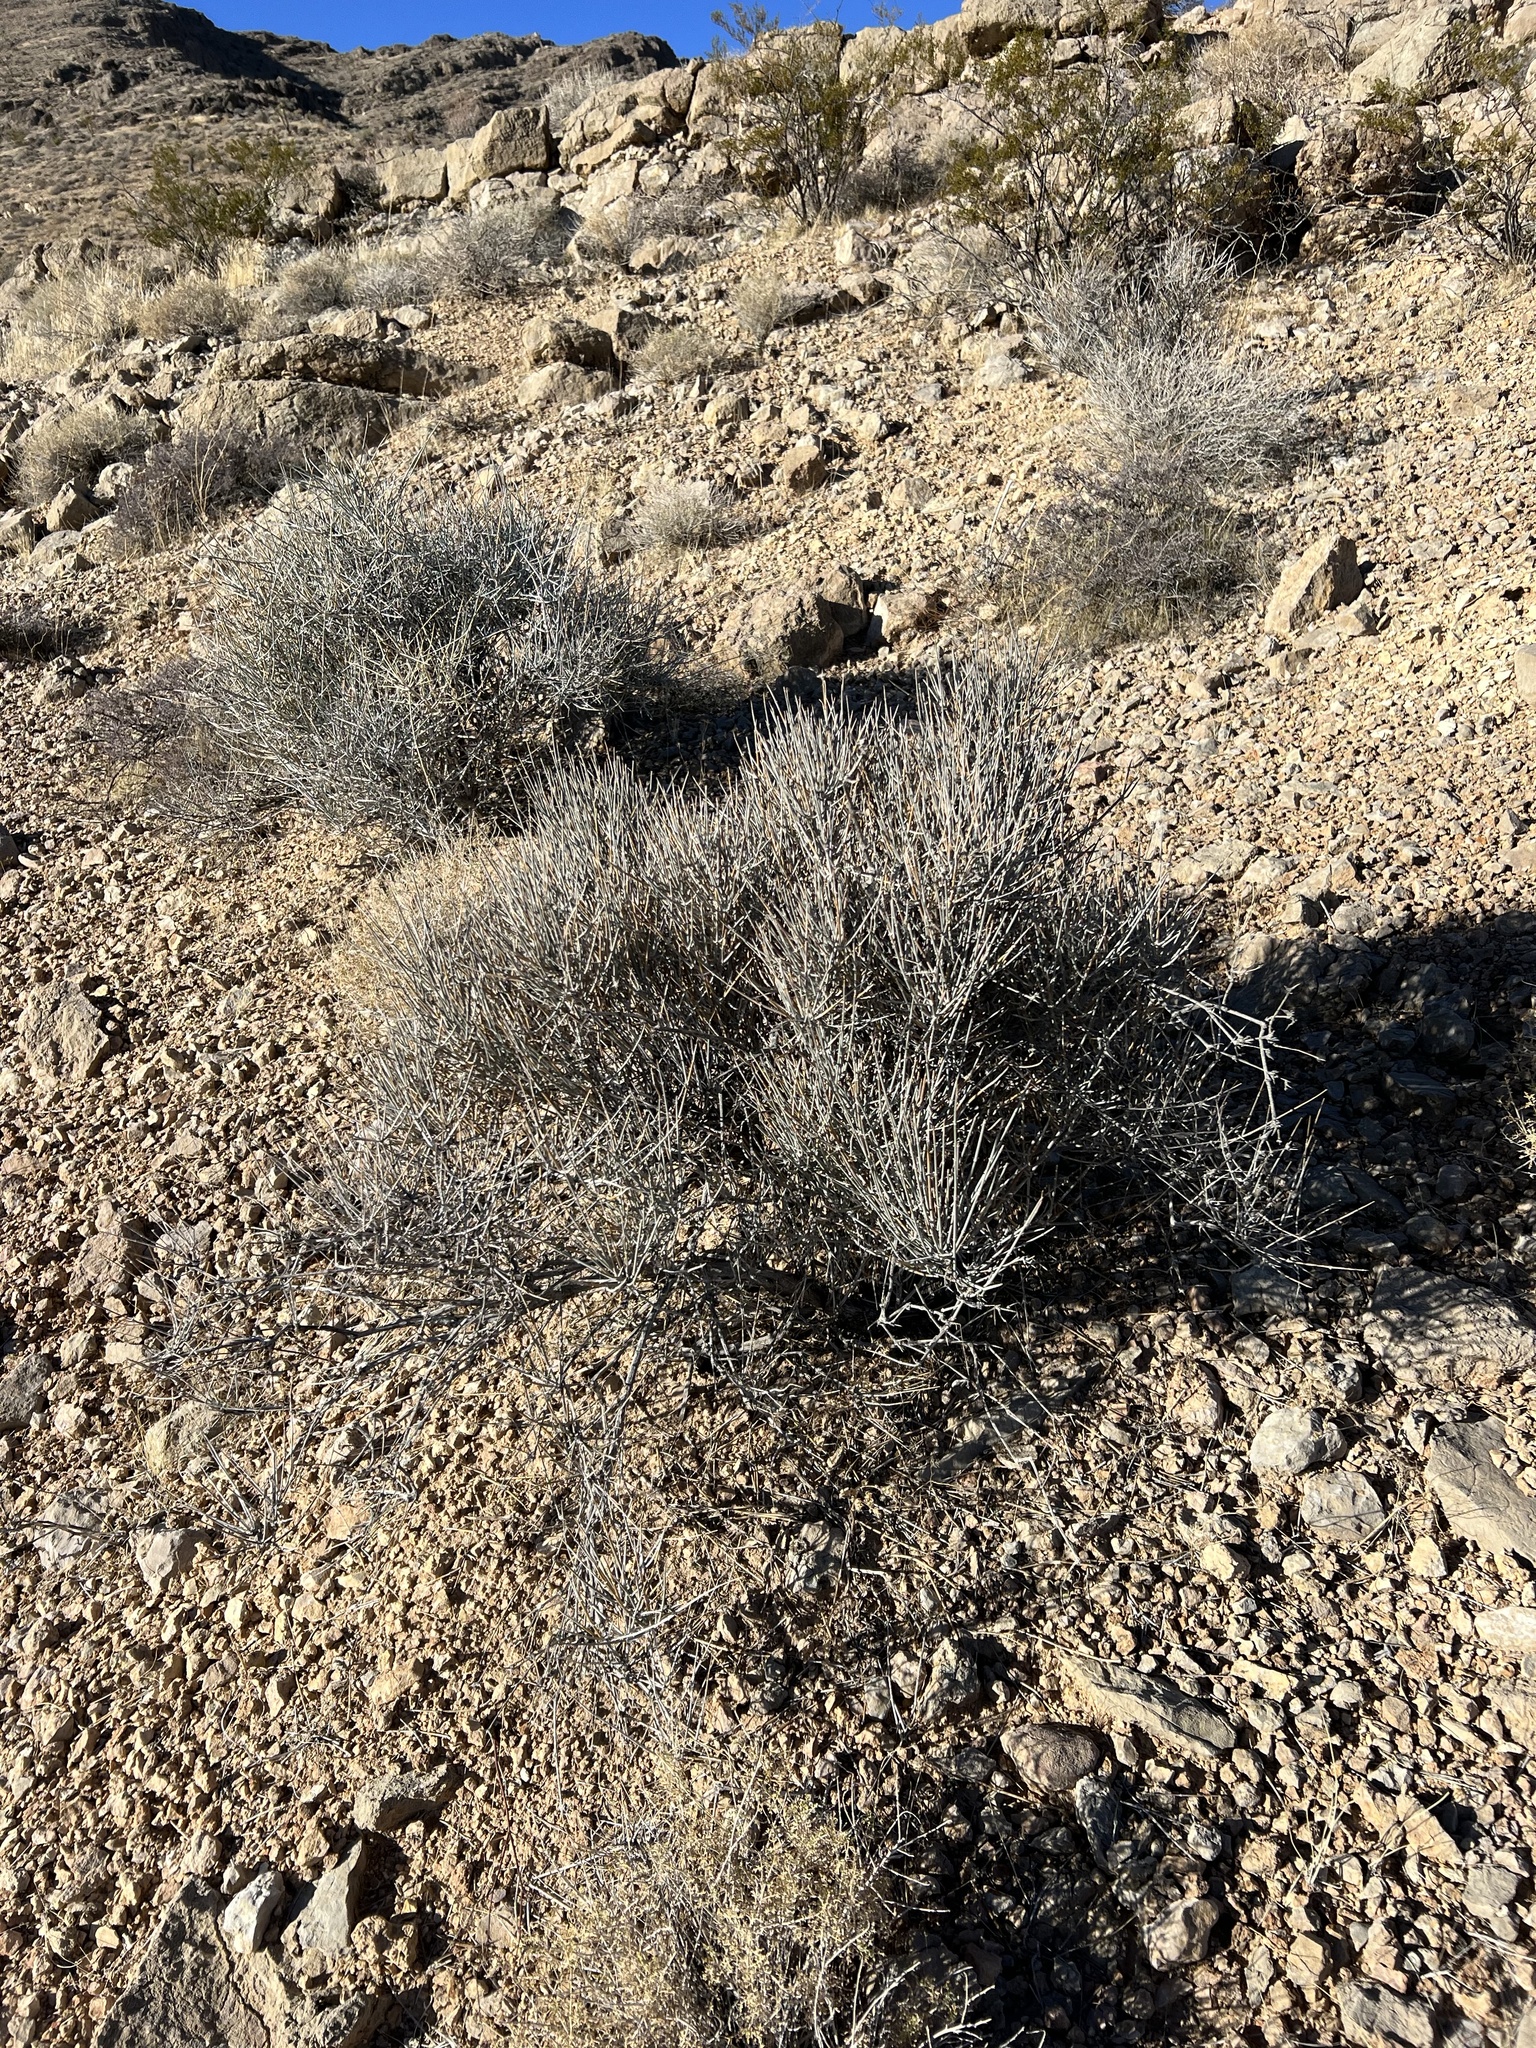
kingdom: Plantae
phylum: Tracheophyta
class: Gnetopsida
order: Ephedrales
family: Ephedraceae
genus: Ephedra
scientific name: Ephedra nevadensis
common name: Gray ephedra
